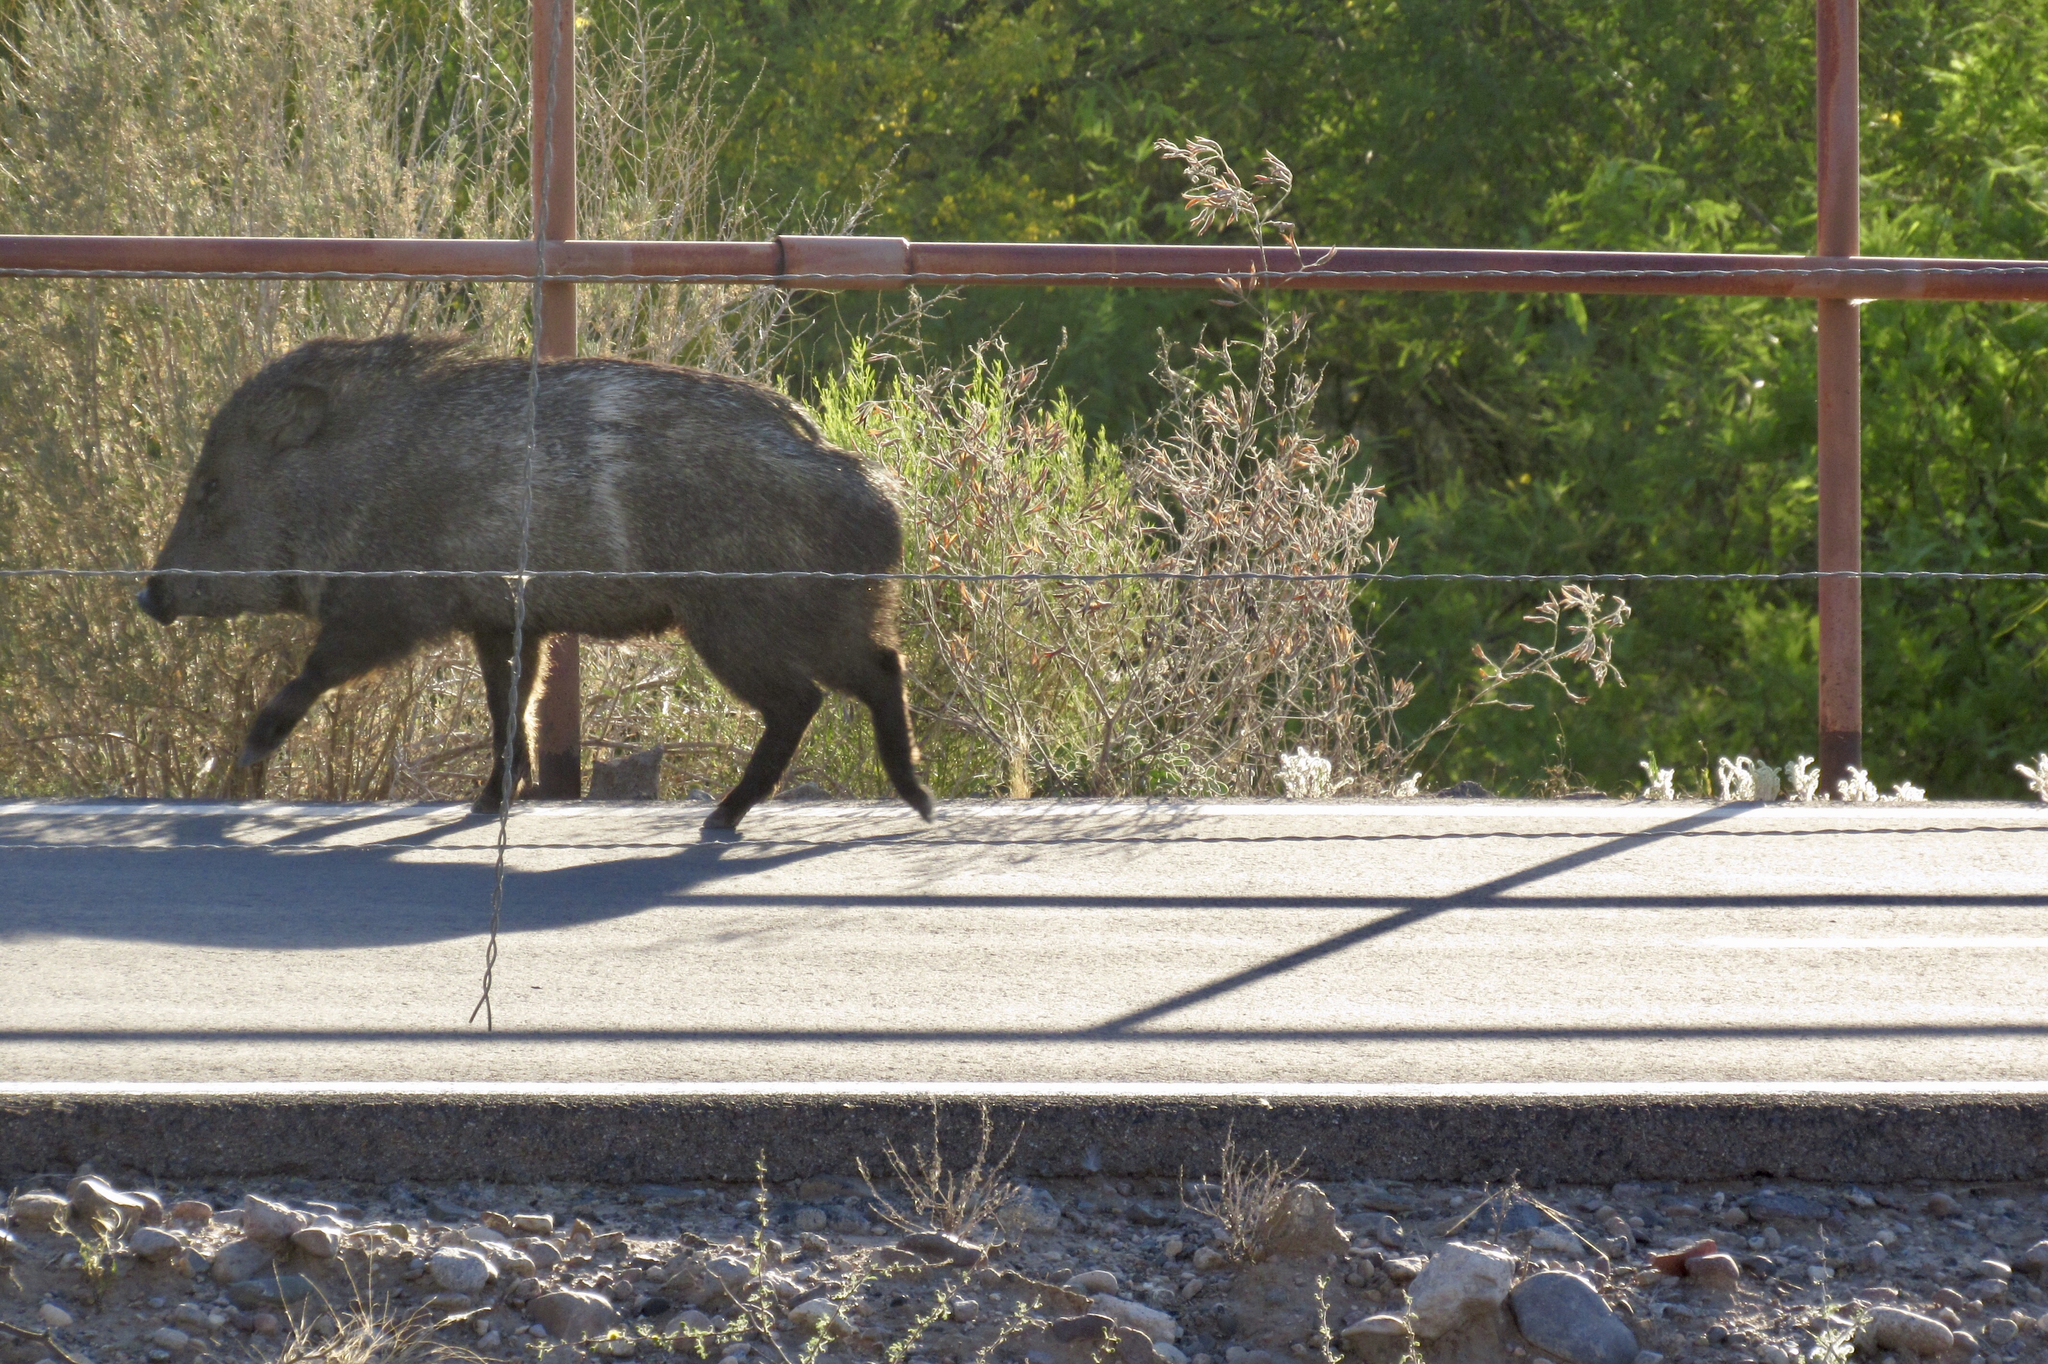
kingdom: Animalia
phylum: Chordata
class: Mammalia
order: Artiodactyla
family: Tayassuidae
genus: Pecari
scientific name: Pecari tajacu
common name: Collared peccary
